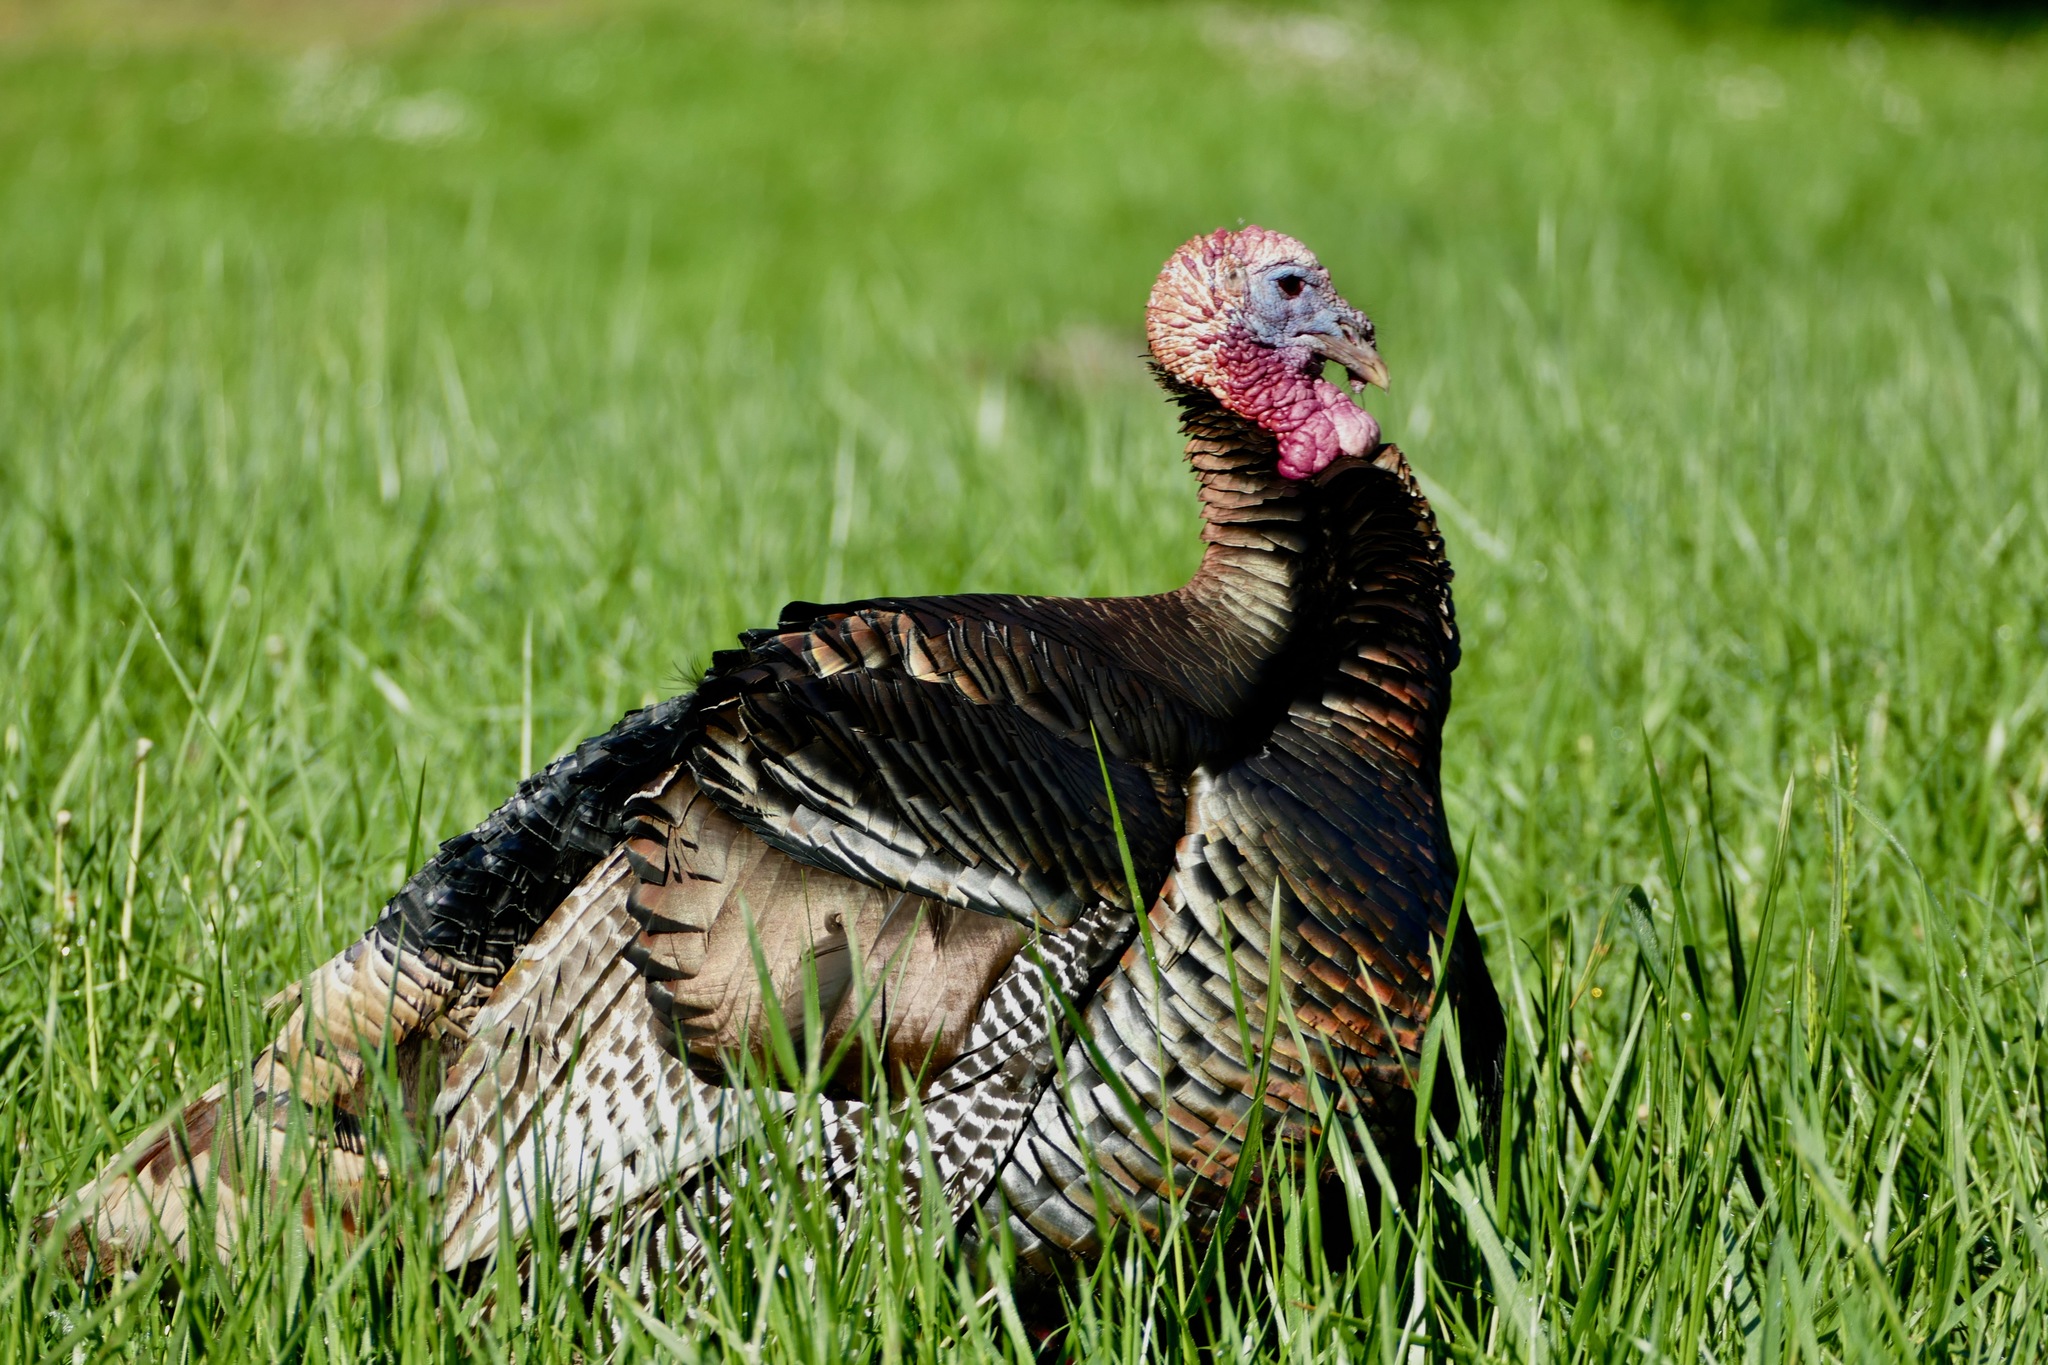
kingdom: Animalia
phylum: Chordata
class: Aves
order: Galliformes
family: Phasianidae
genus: Meleagris
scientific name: Meleagris gallopavo
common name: Wild turkey
